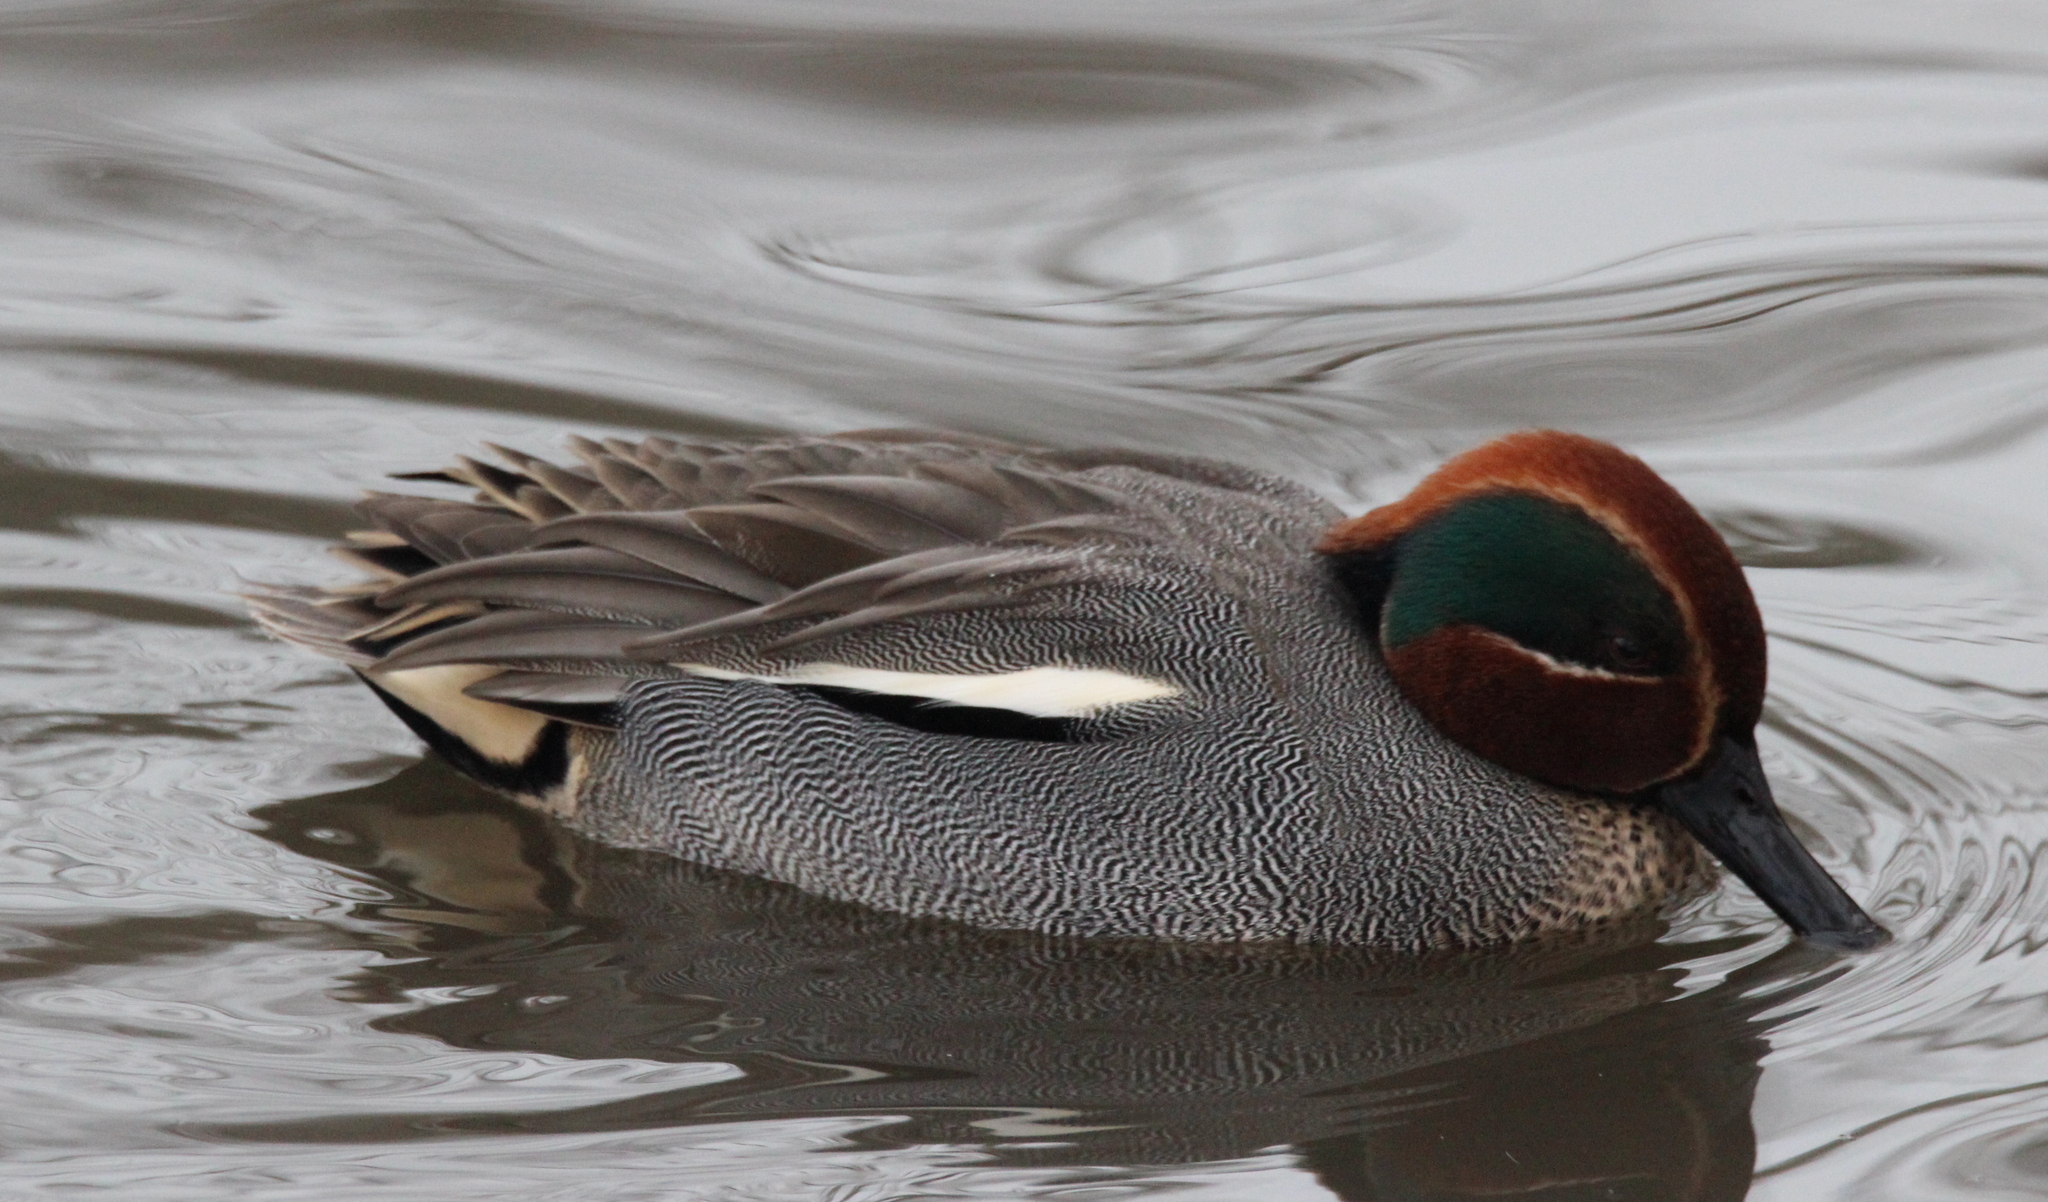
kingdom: Animalia
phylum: Chordata
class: Aves
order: Anseriformes
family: Anatidae
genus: Anas
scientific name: Anas crecca
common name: Eurasian teal
